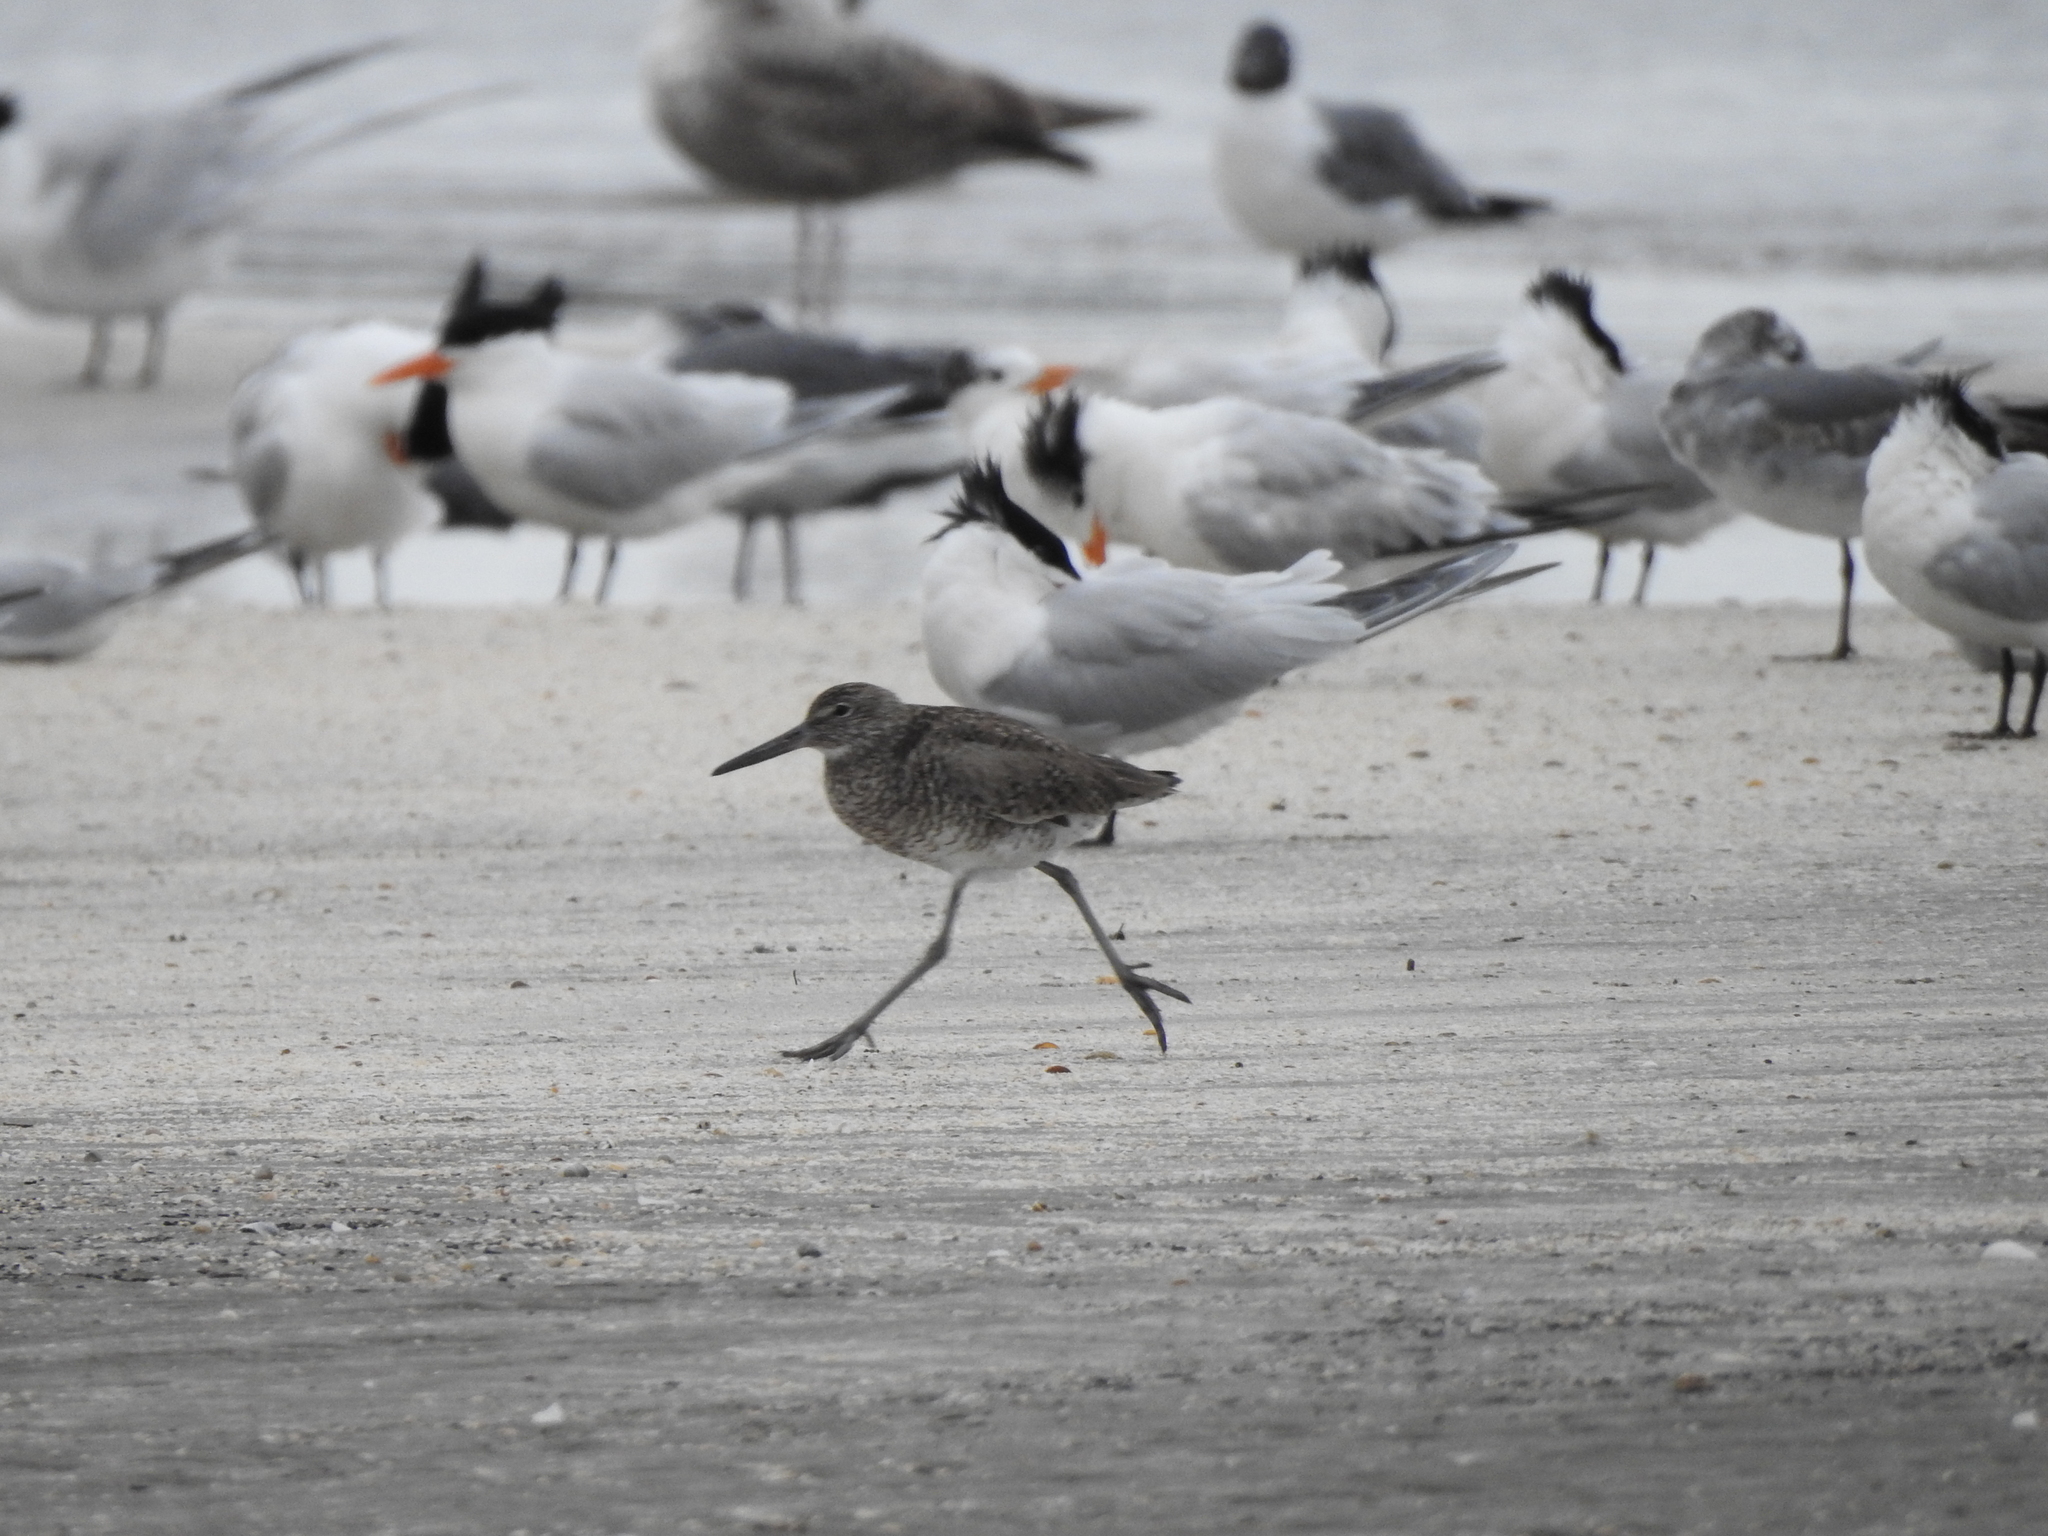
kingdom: Animalia
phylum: Chordata
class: Aves
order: Charadriiformes
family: Scolopacidae
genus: Tringa
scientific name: Tringa semipalmata
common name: Willet
